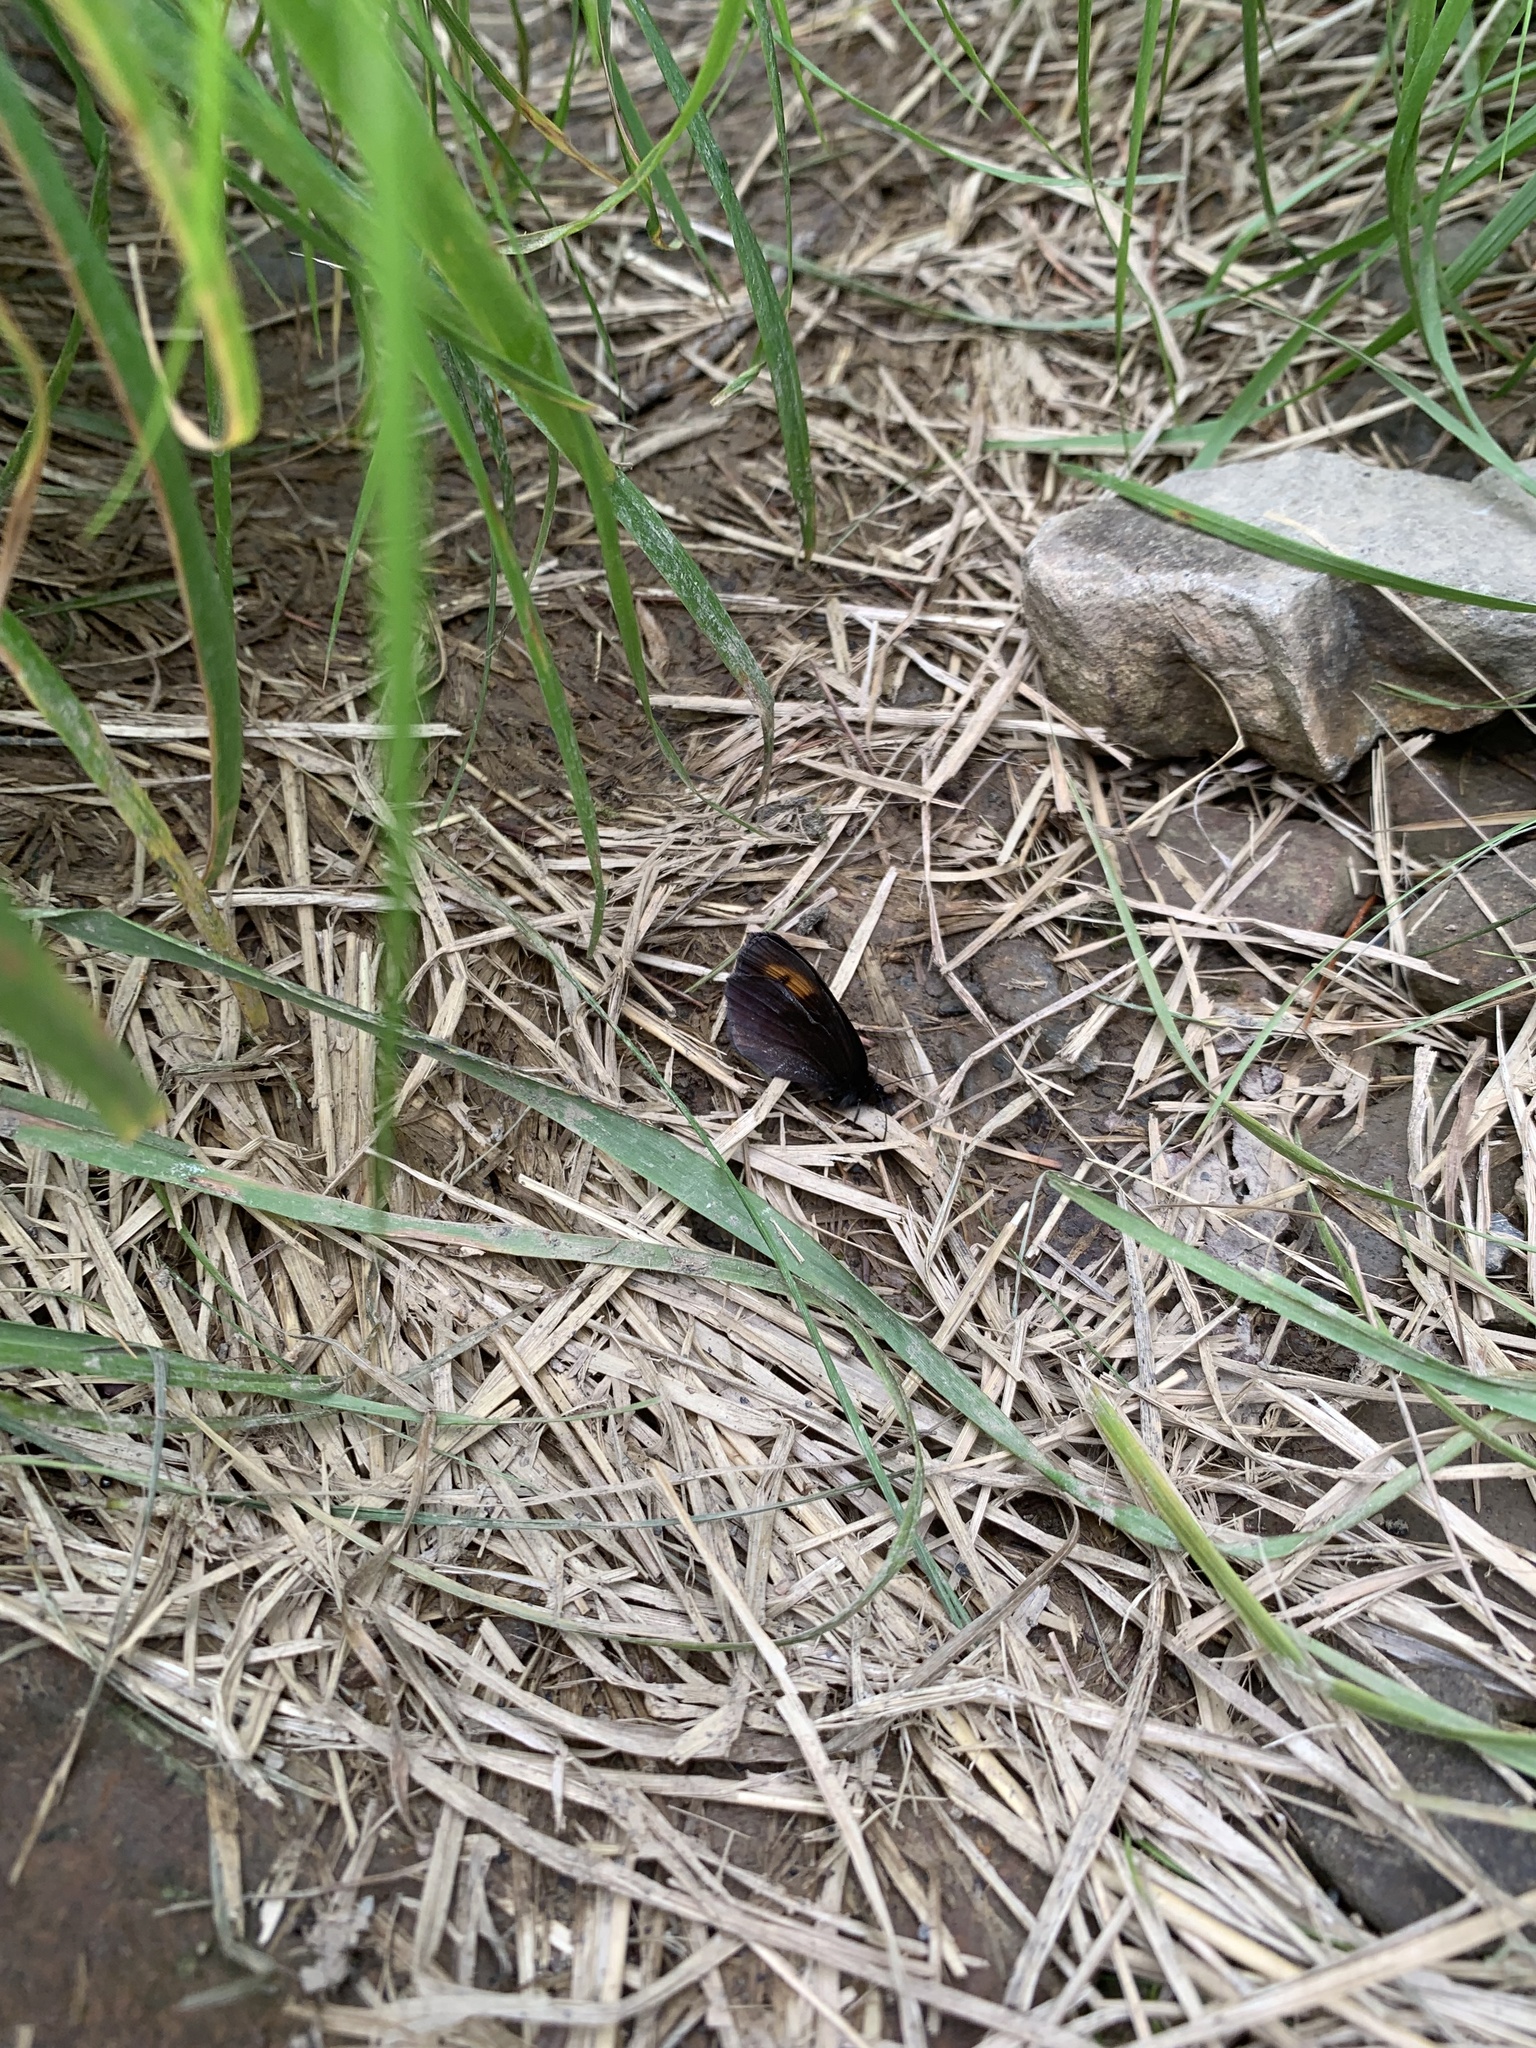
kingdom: Animalia
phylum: Arthropoda
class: Insecta
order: Lepidoptera
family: Nymphalidae
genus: Erebia
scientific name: Erebia niphonica
